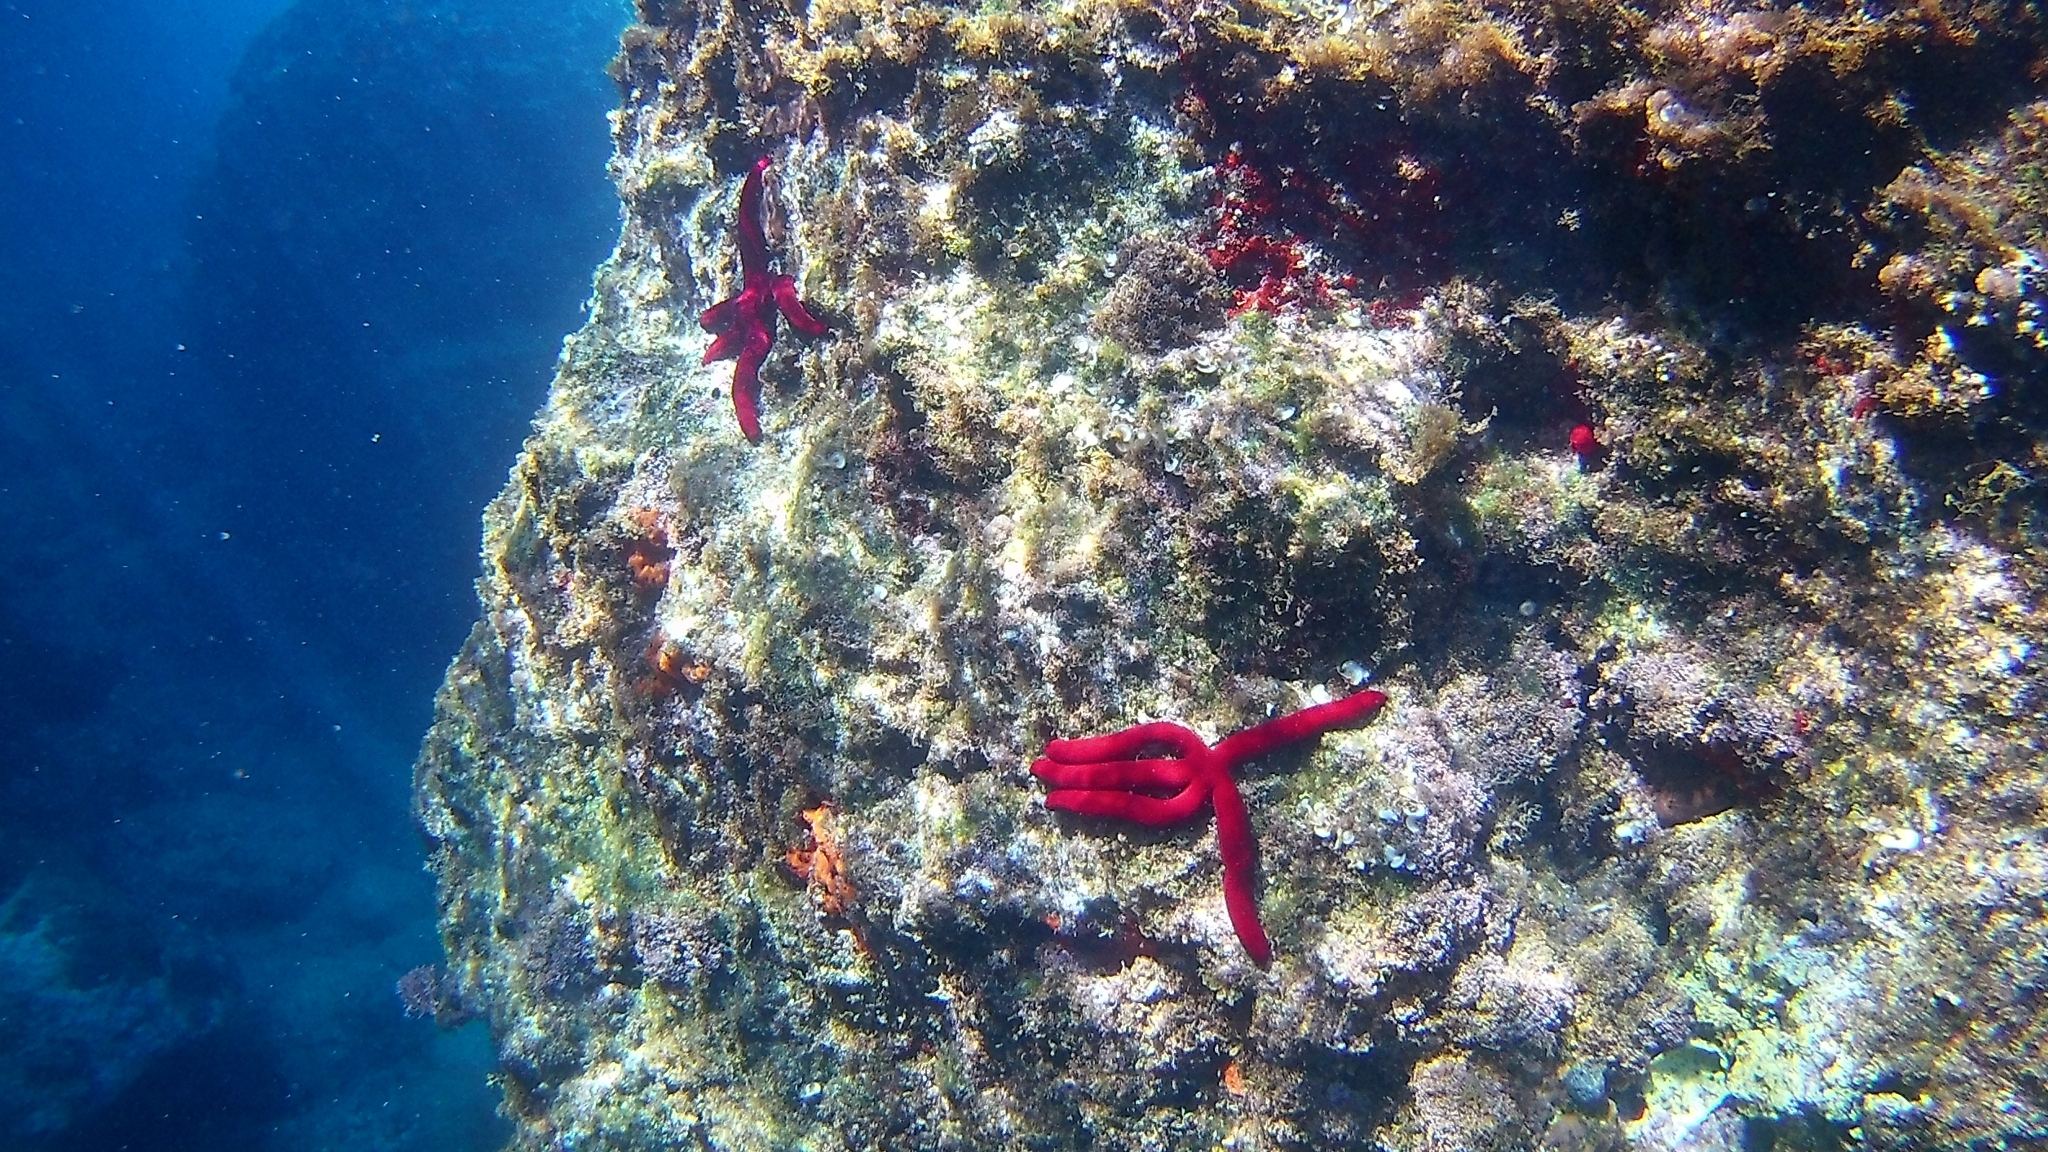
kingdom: Animalia
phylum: Echinodermata
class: Asteroidea
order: Valvatida
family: Ophidiasteridae
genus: Ophidiaster
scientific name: Ophidiaster ophidianus
